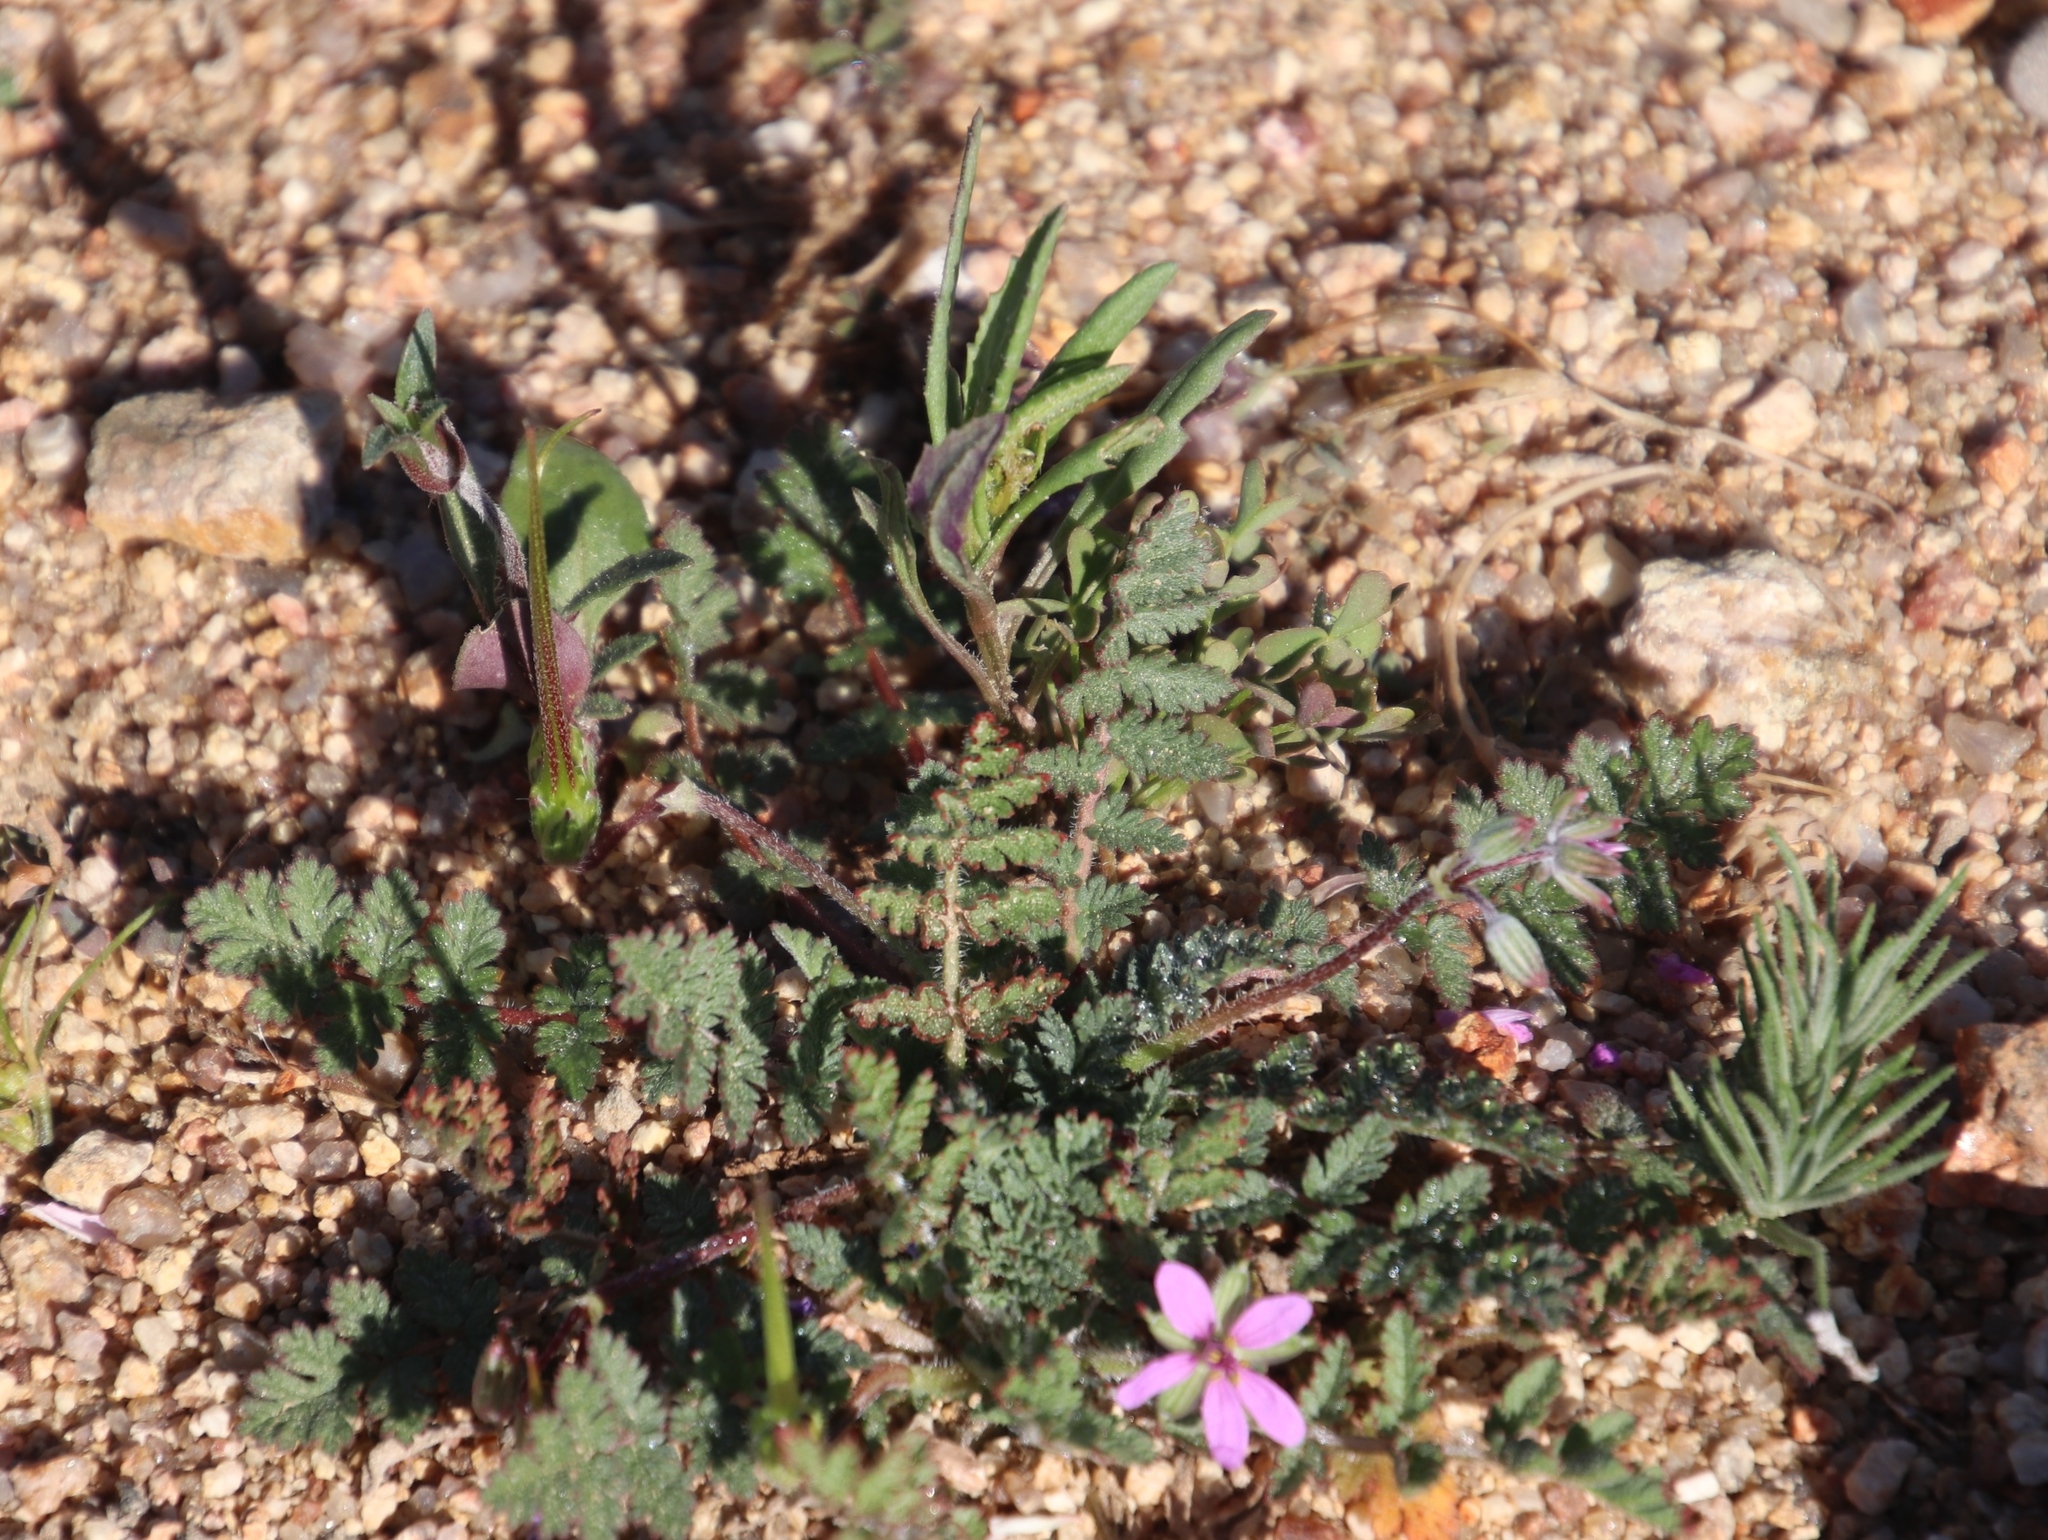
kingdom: Plantae
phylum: Tracheophyta
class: Magnoliopsida
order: Geraniales
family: Geraniaceae
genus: Erodium
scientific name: Erodium cicutarium
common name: Common stork's-bill
